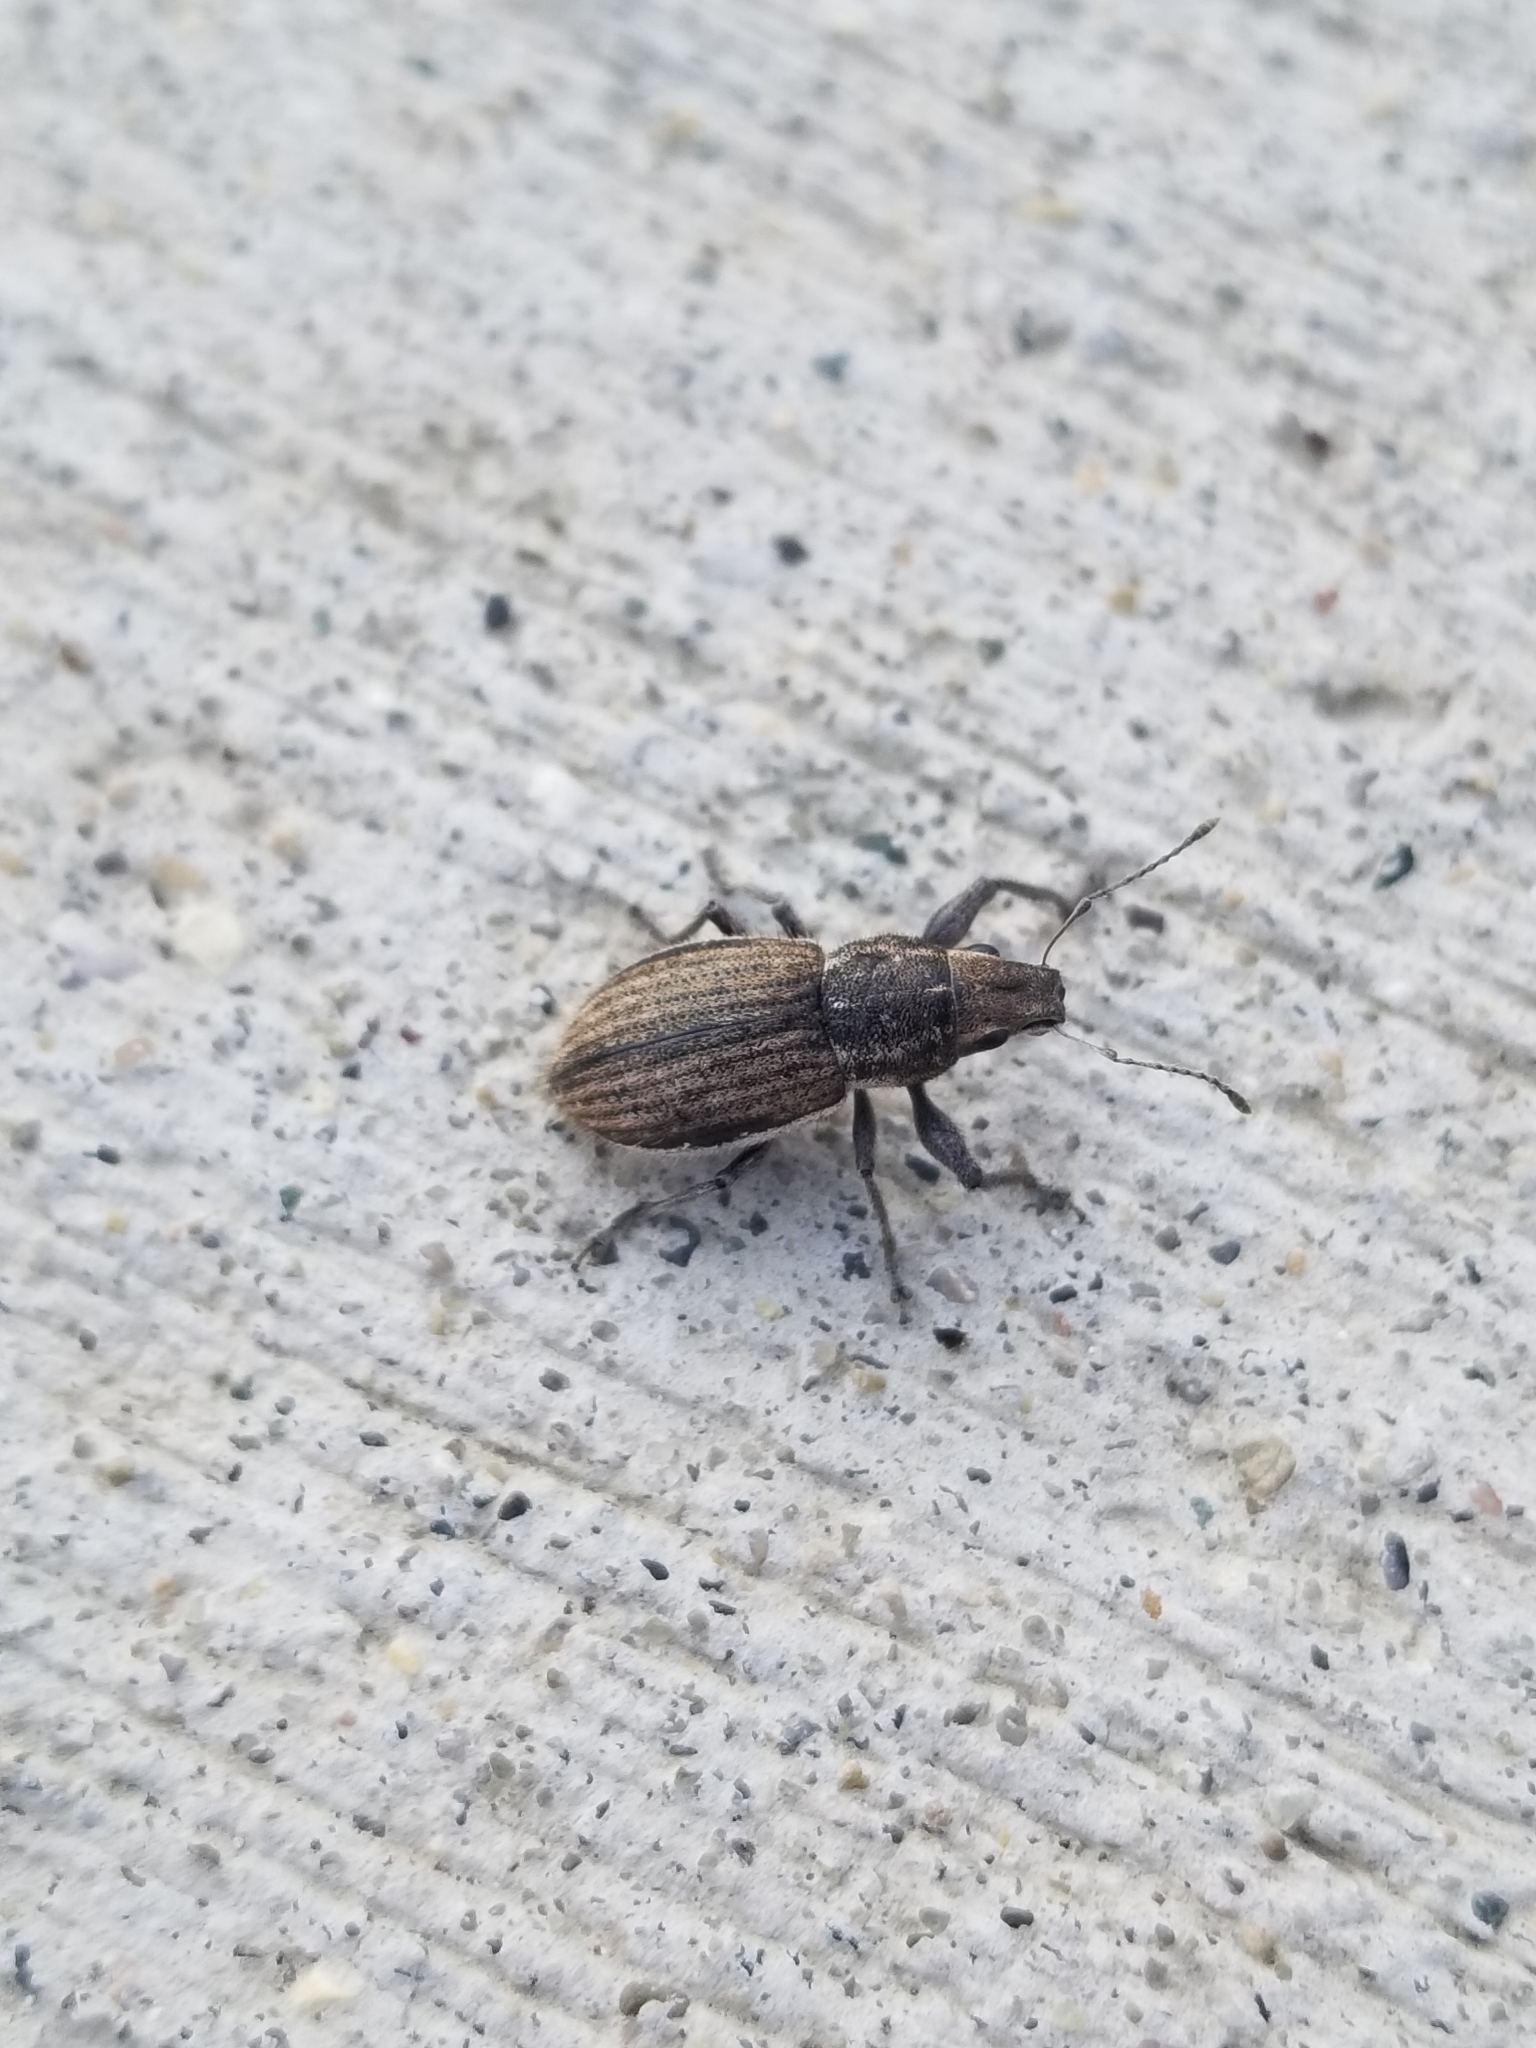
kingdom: Animalia
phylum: Arthropoda
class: Insecta
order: Coleoptera
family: Curculionidae
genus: Naupactus
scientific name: Naupactus leucoloma
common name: Whitefringed beetle
